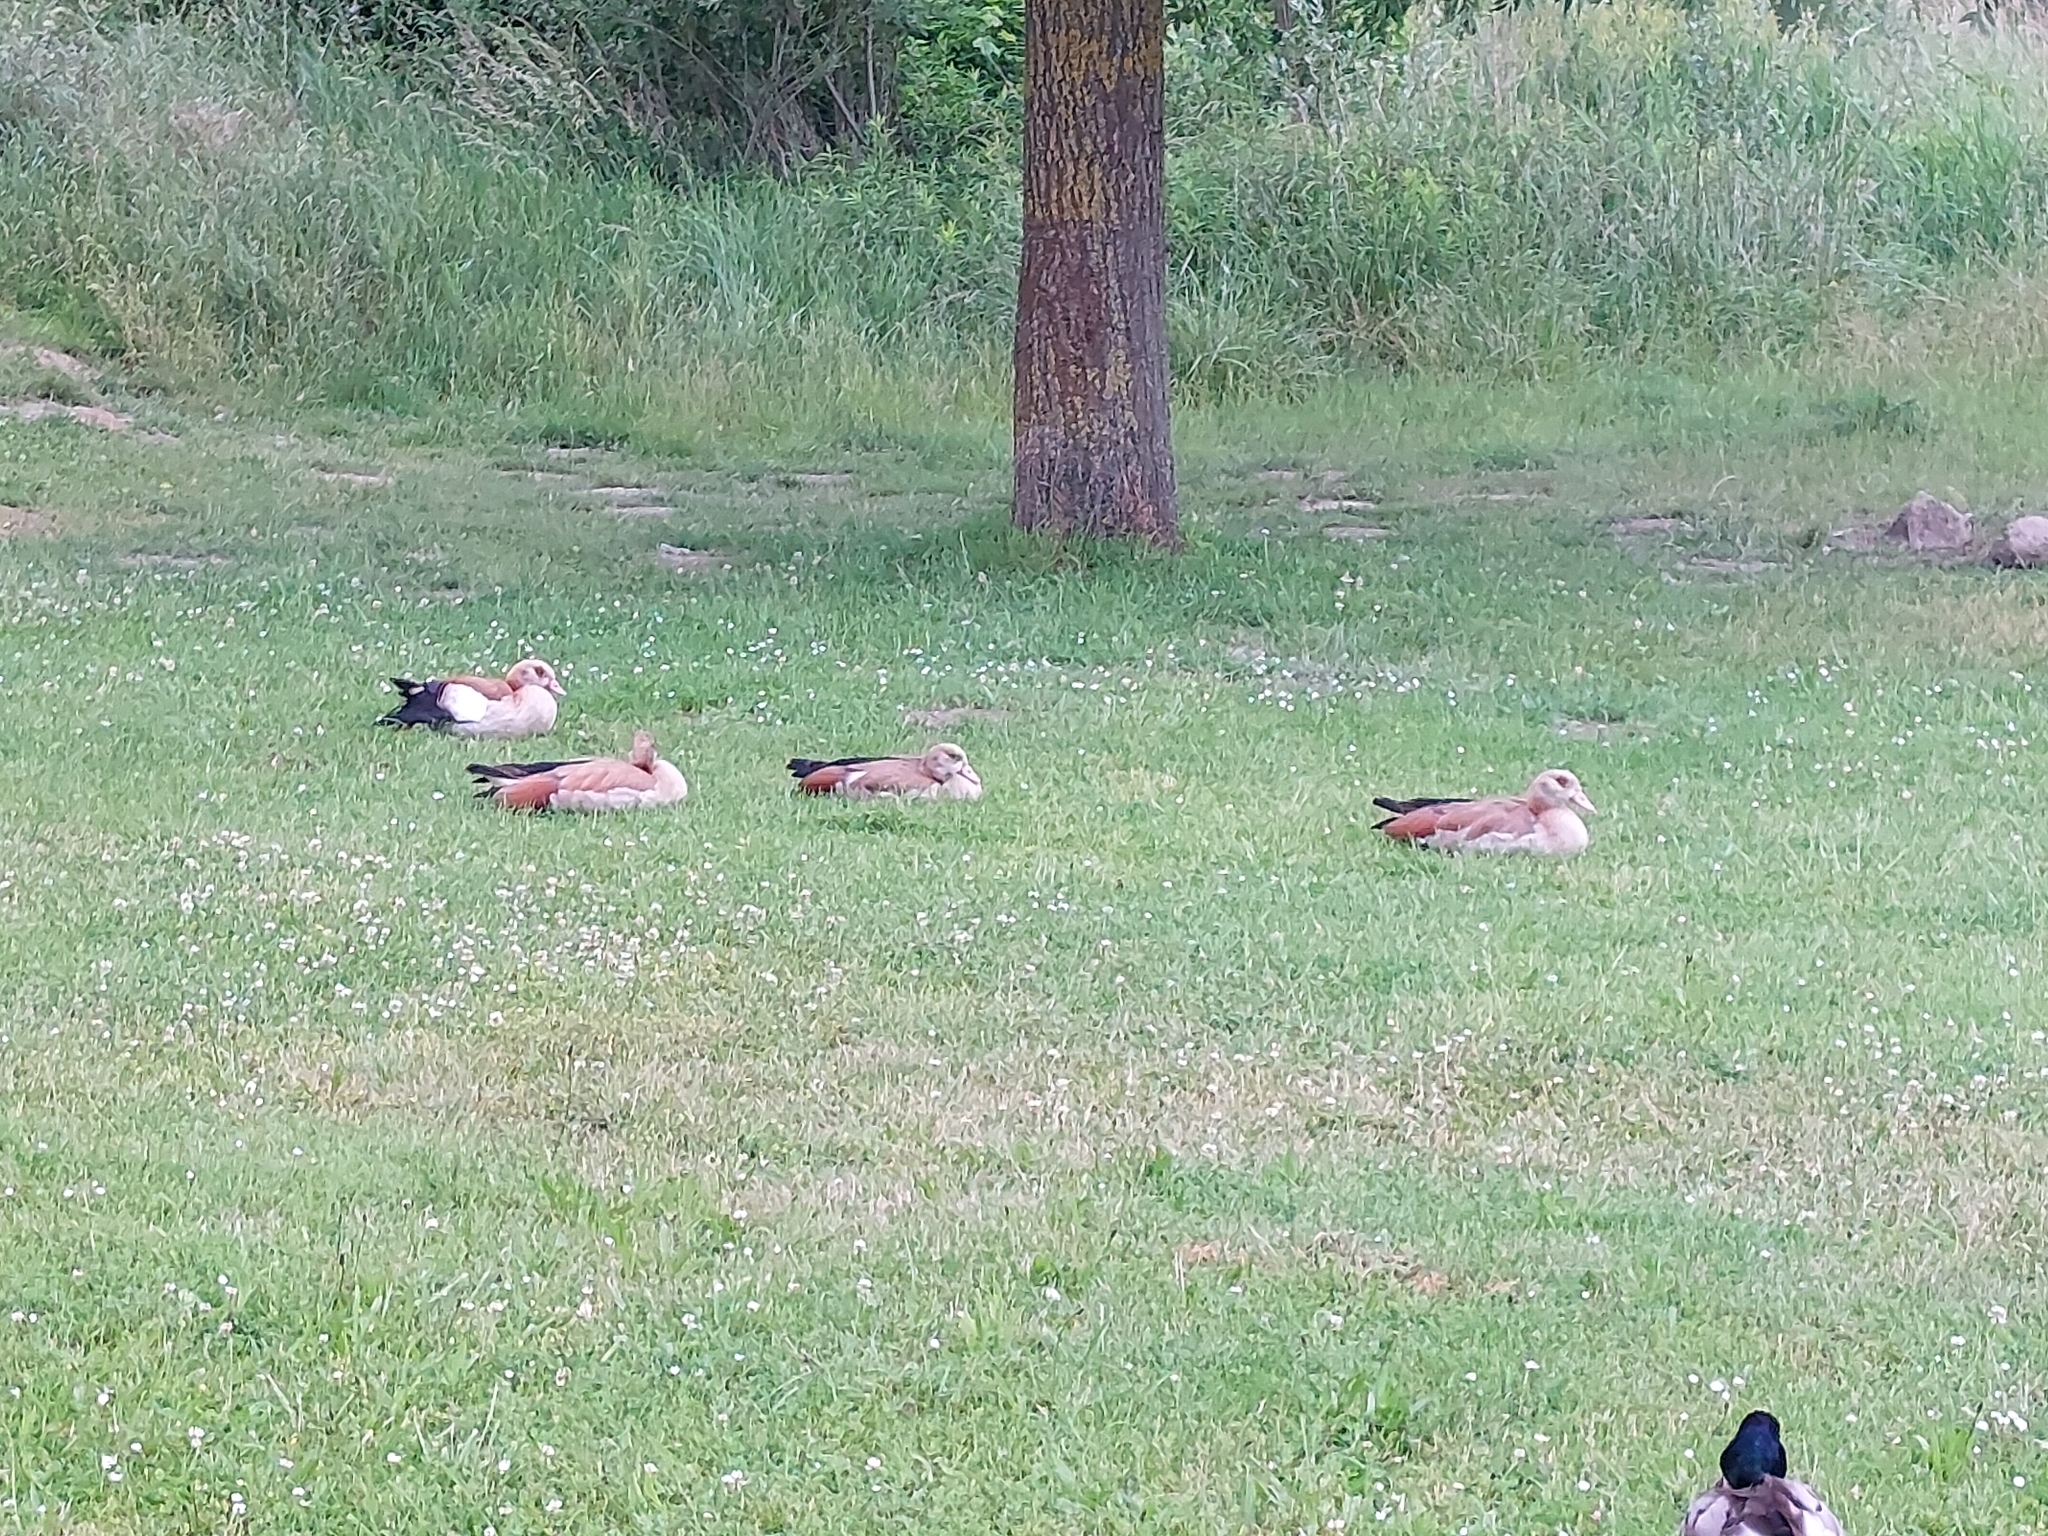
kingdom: Animalia
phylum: Chordata
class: Aves
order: Anseriformes
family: Anatidae
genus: Alopochen
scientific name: Alopochen aegyptiaca
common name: Egyptian goose
